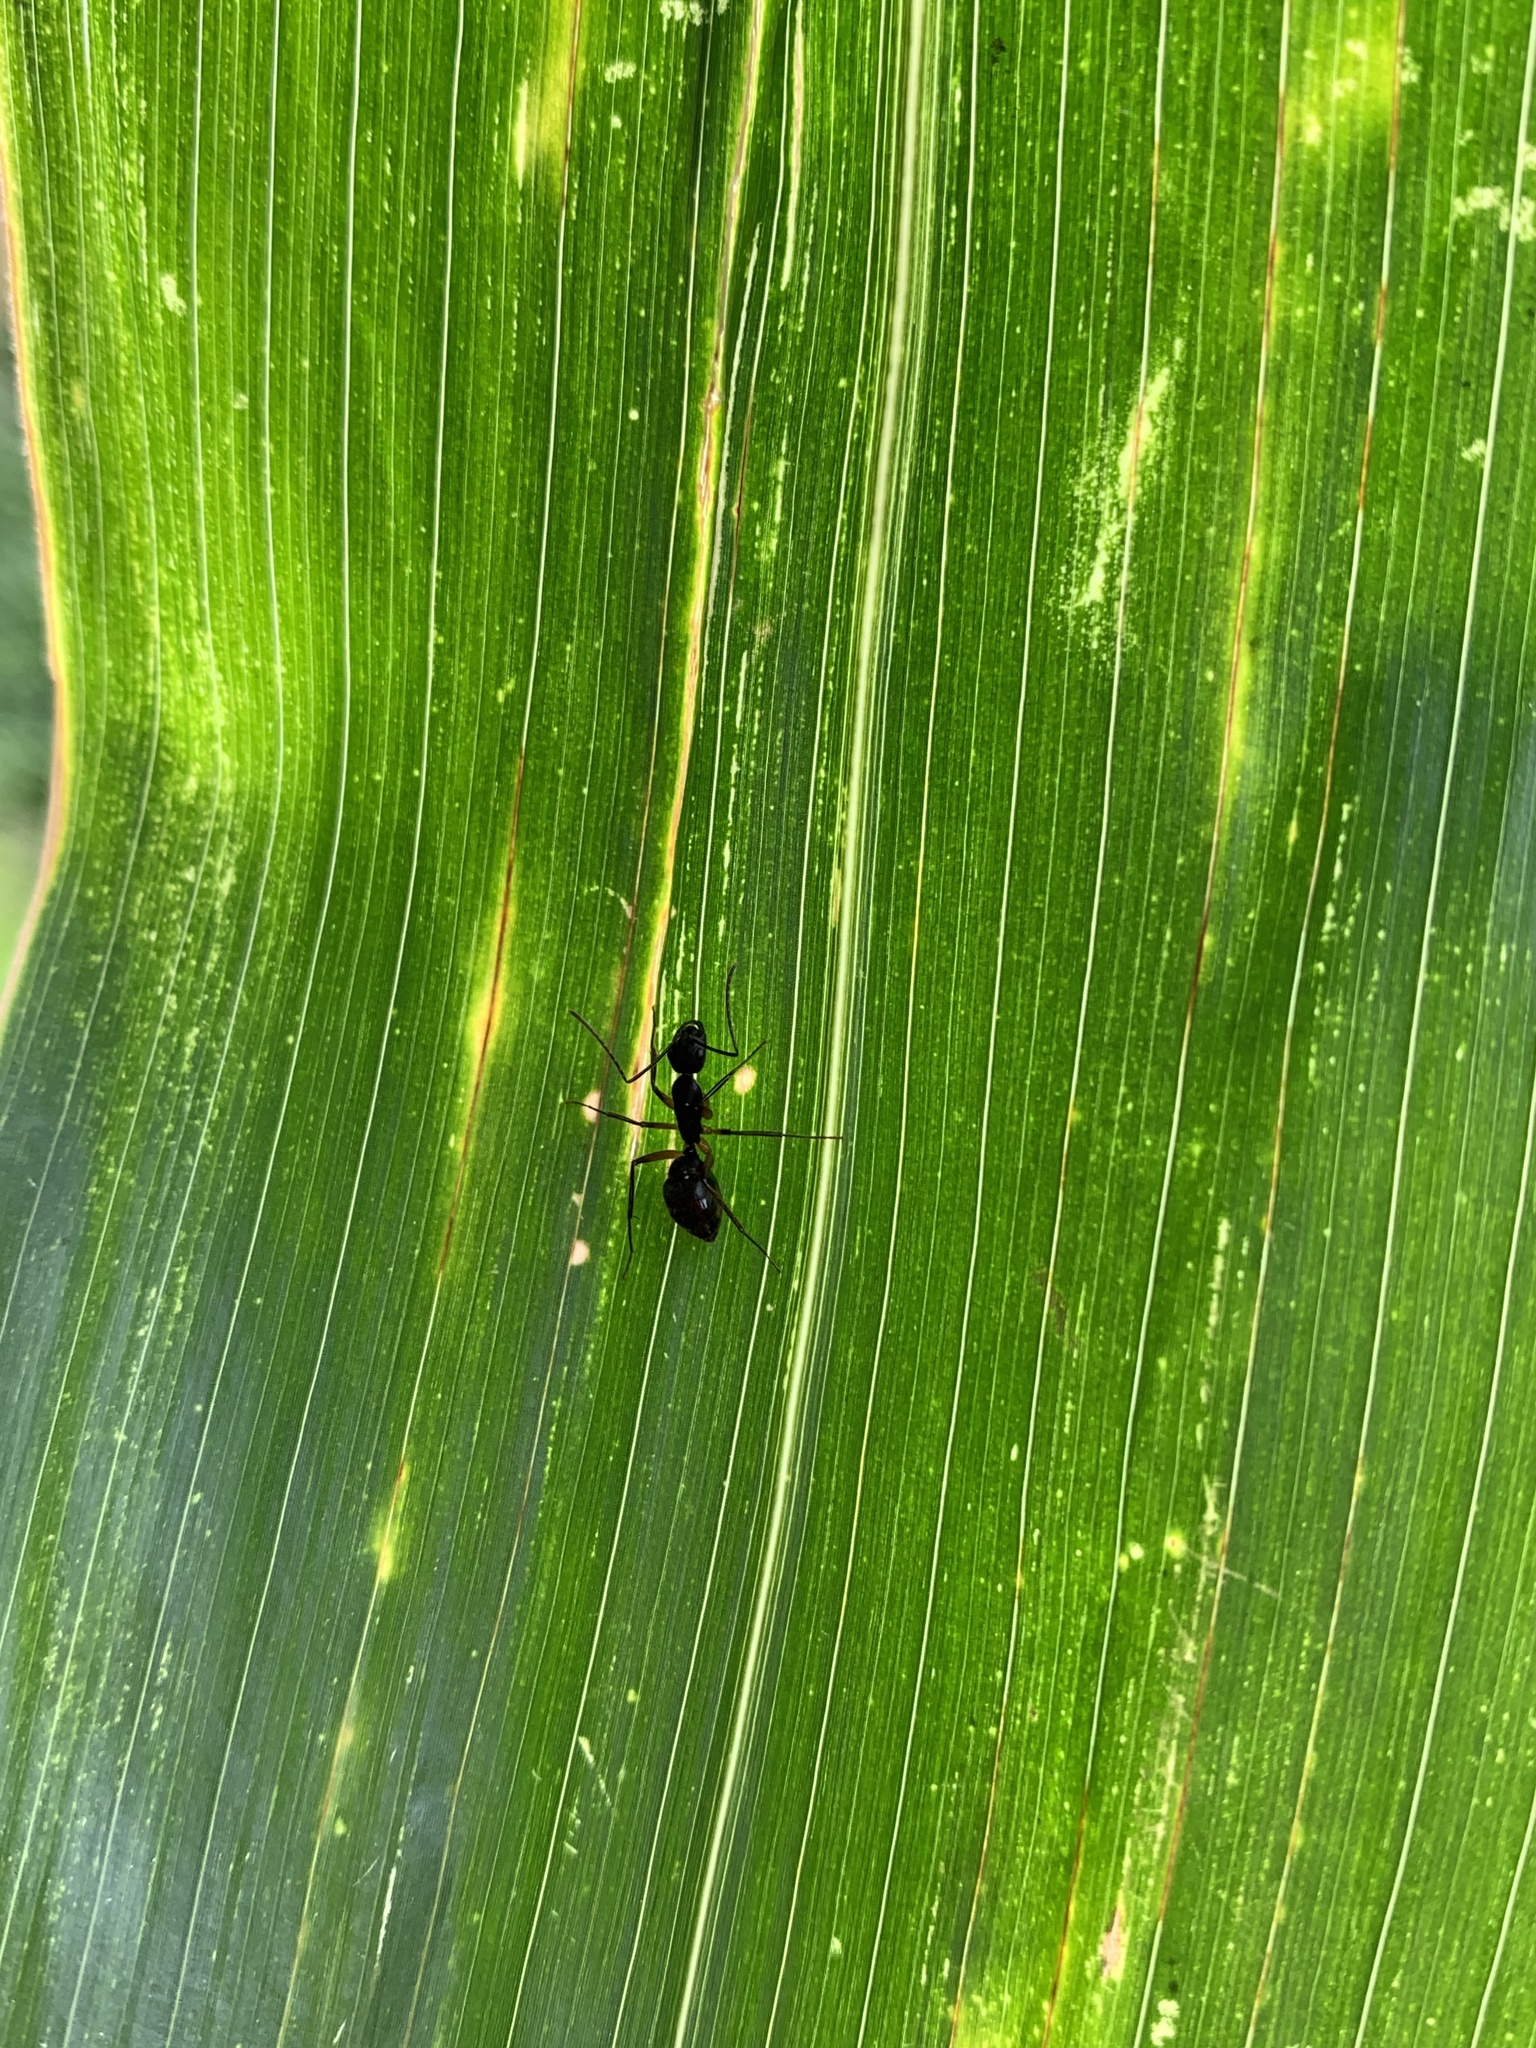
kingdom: Animalia
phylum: Arthropoda
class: Insecta
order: Hymenoptera
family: Formicidae
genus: Camponotus
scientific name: Camponotus renggeri
